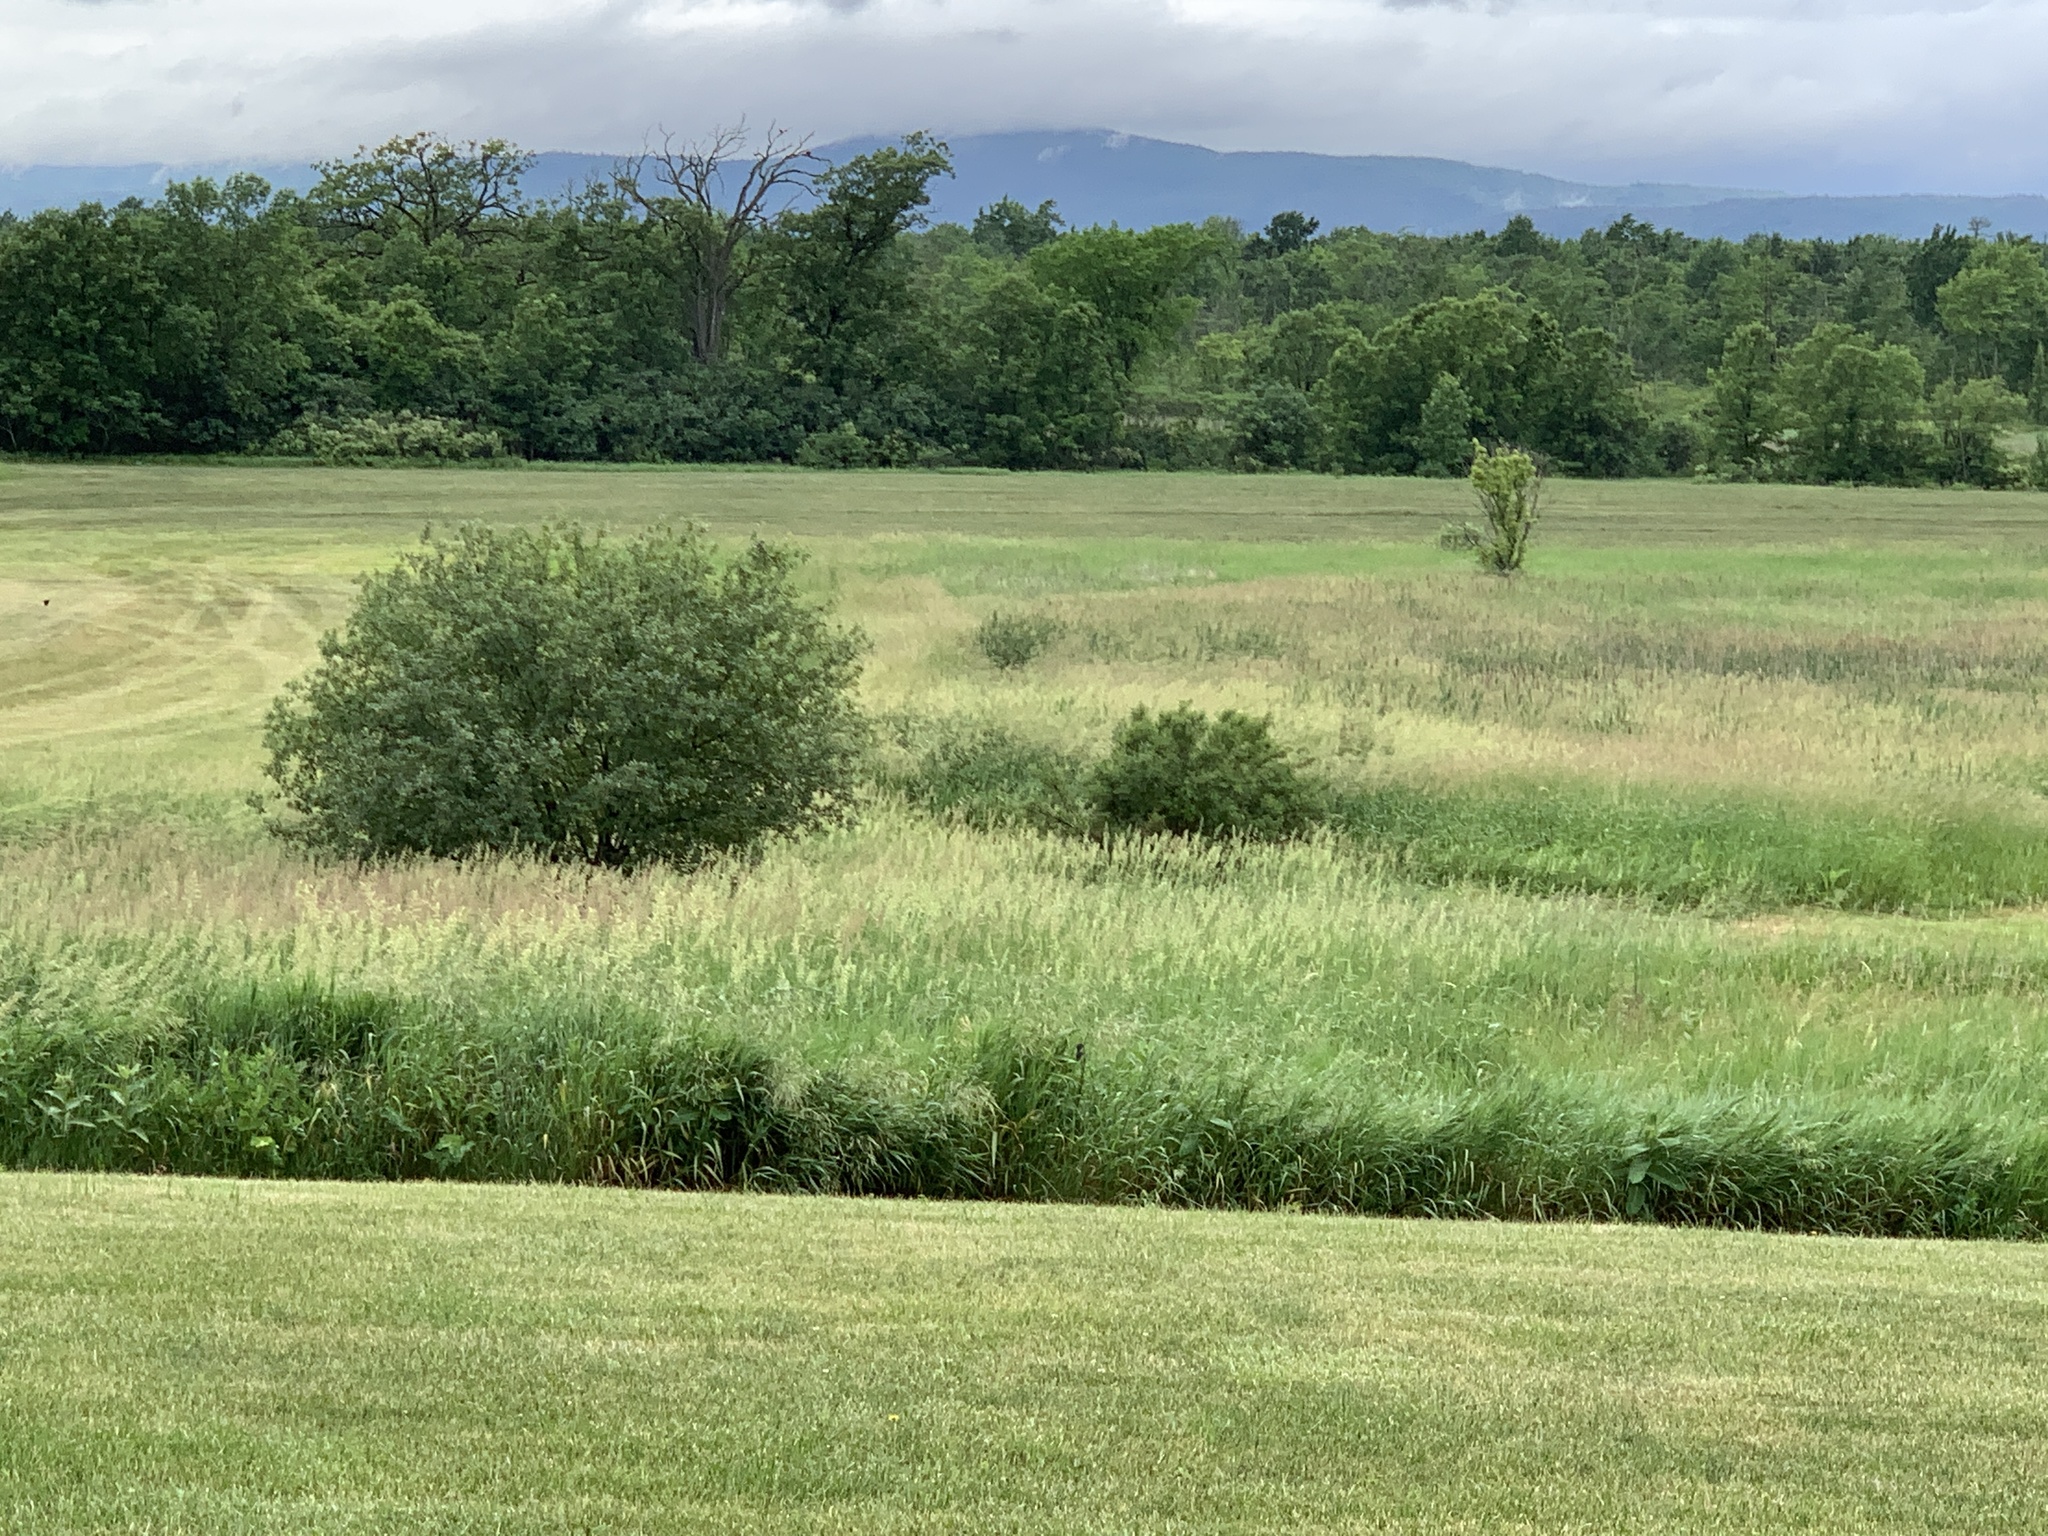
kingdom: Plantae
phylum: Tracheophyta
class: Liliopsida
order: Poales
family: Poaceae
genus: Phalaris
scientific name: Phalaris arundinacea
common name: Reed canary-grass
